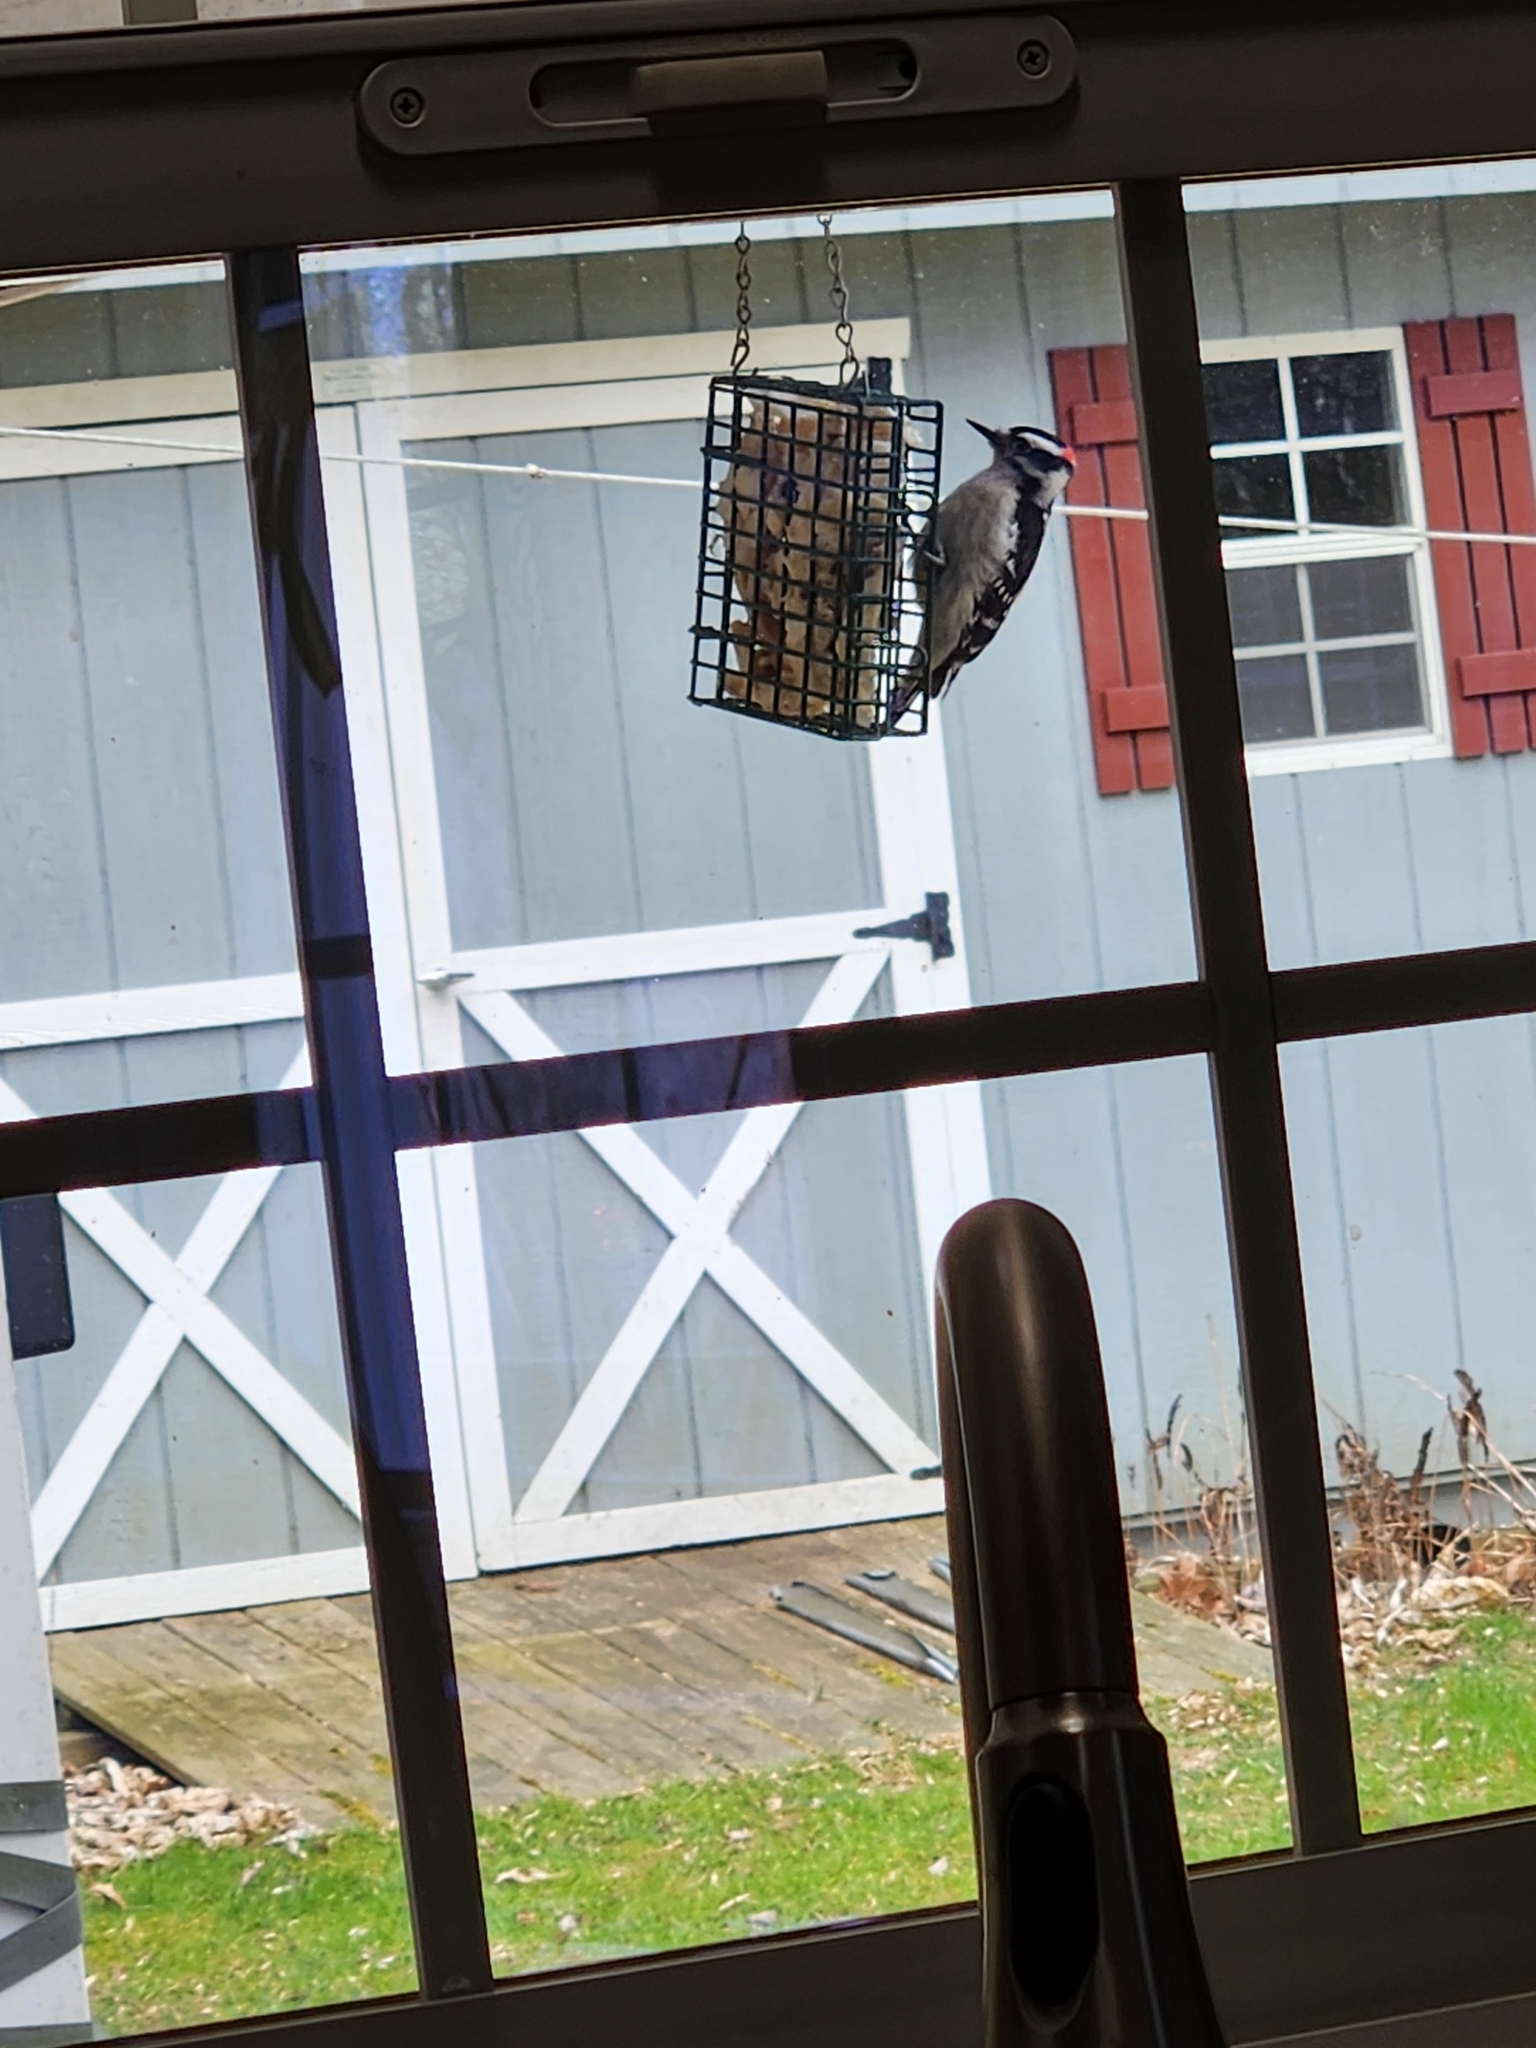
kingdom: Animalia
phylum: Chordata
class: Aves
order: Piciformes
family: Picidae
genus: Dryobates
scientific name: Dryobates pubescens
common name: Downy woodpecker
